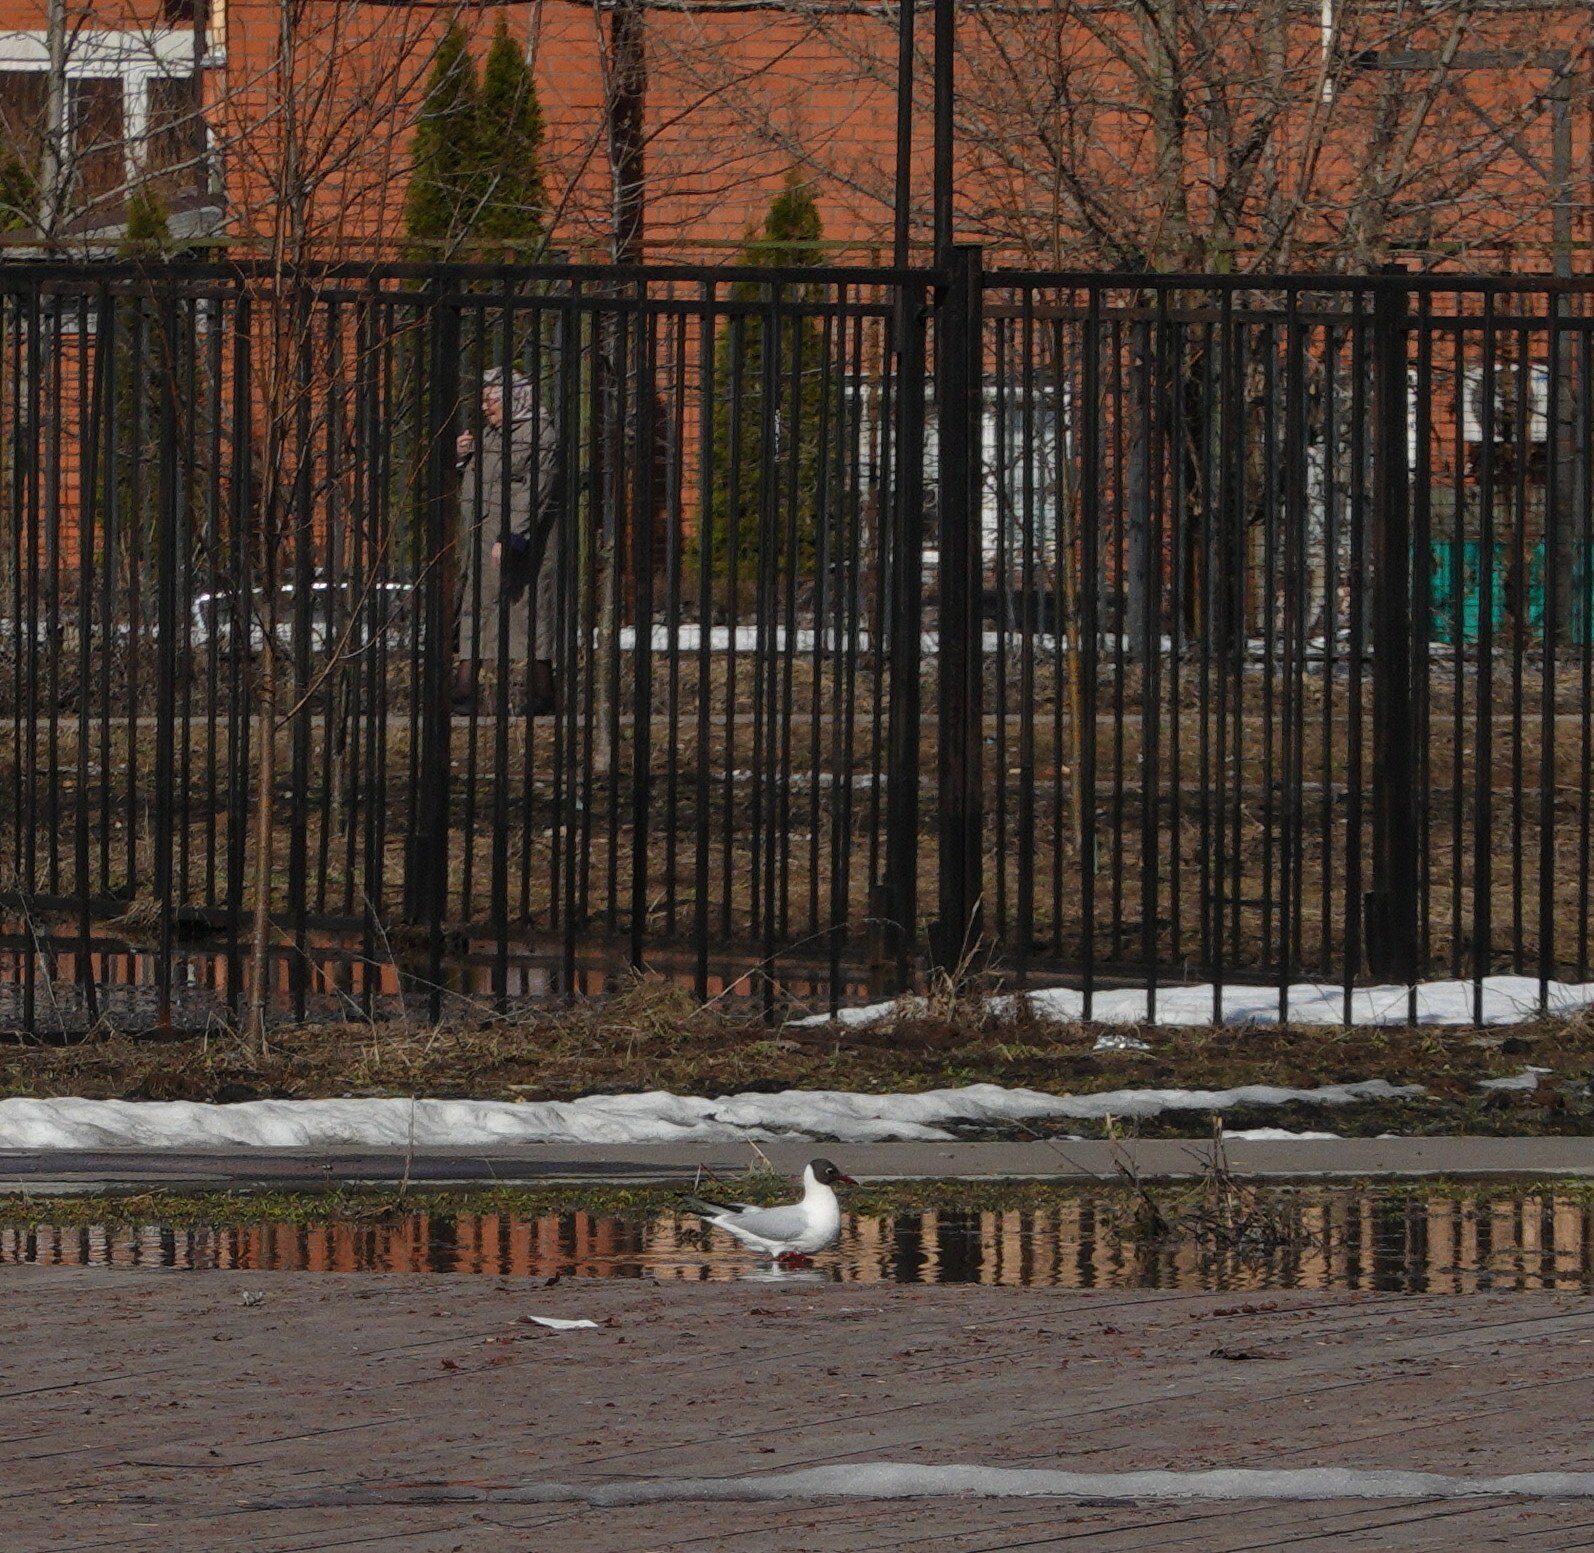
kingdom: Animalia
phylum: Chordata
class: Aves
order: Charadriiformes
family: Laridae
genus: Chroicocephalus
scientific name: Chroicocephalus ridibundus
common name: Black-headed gull
